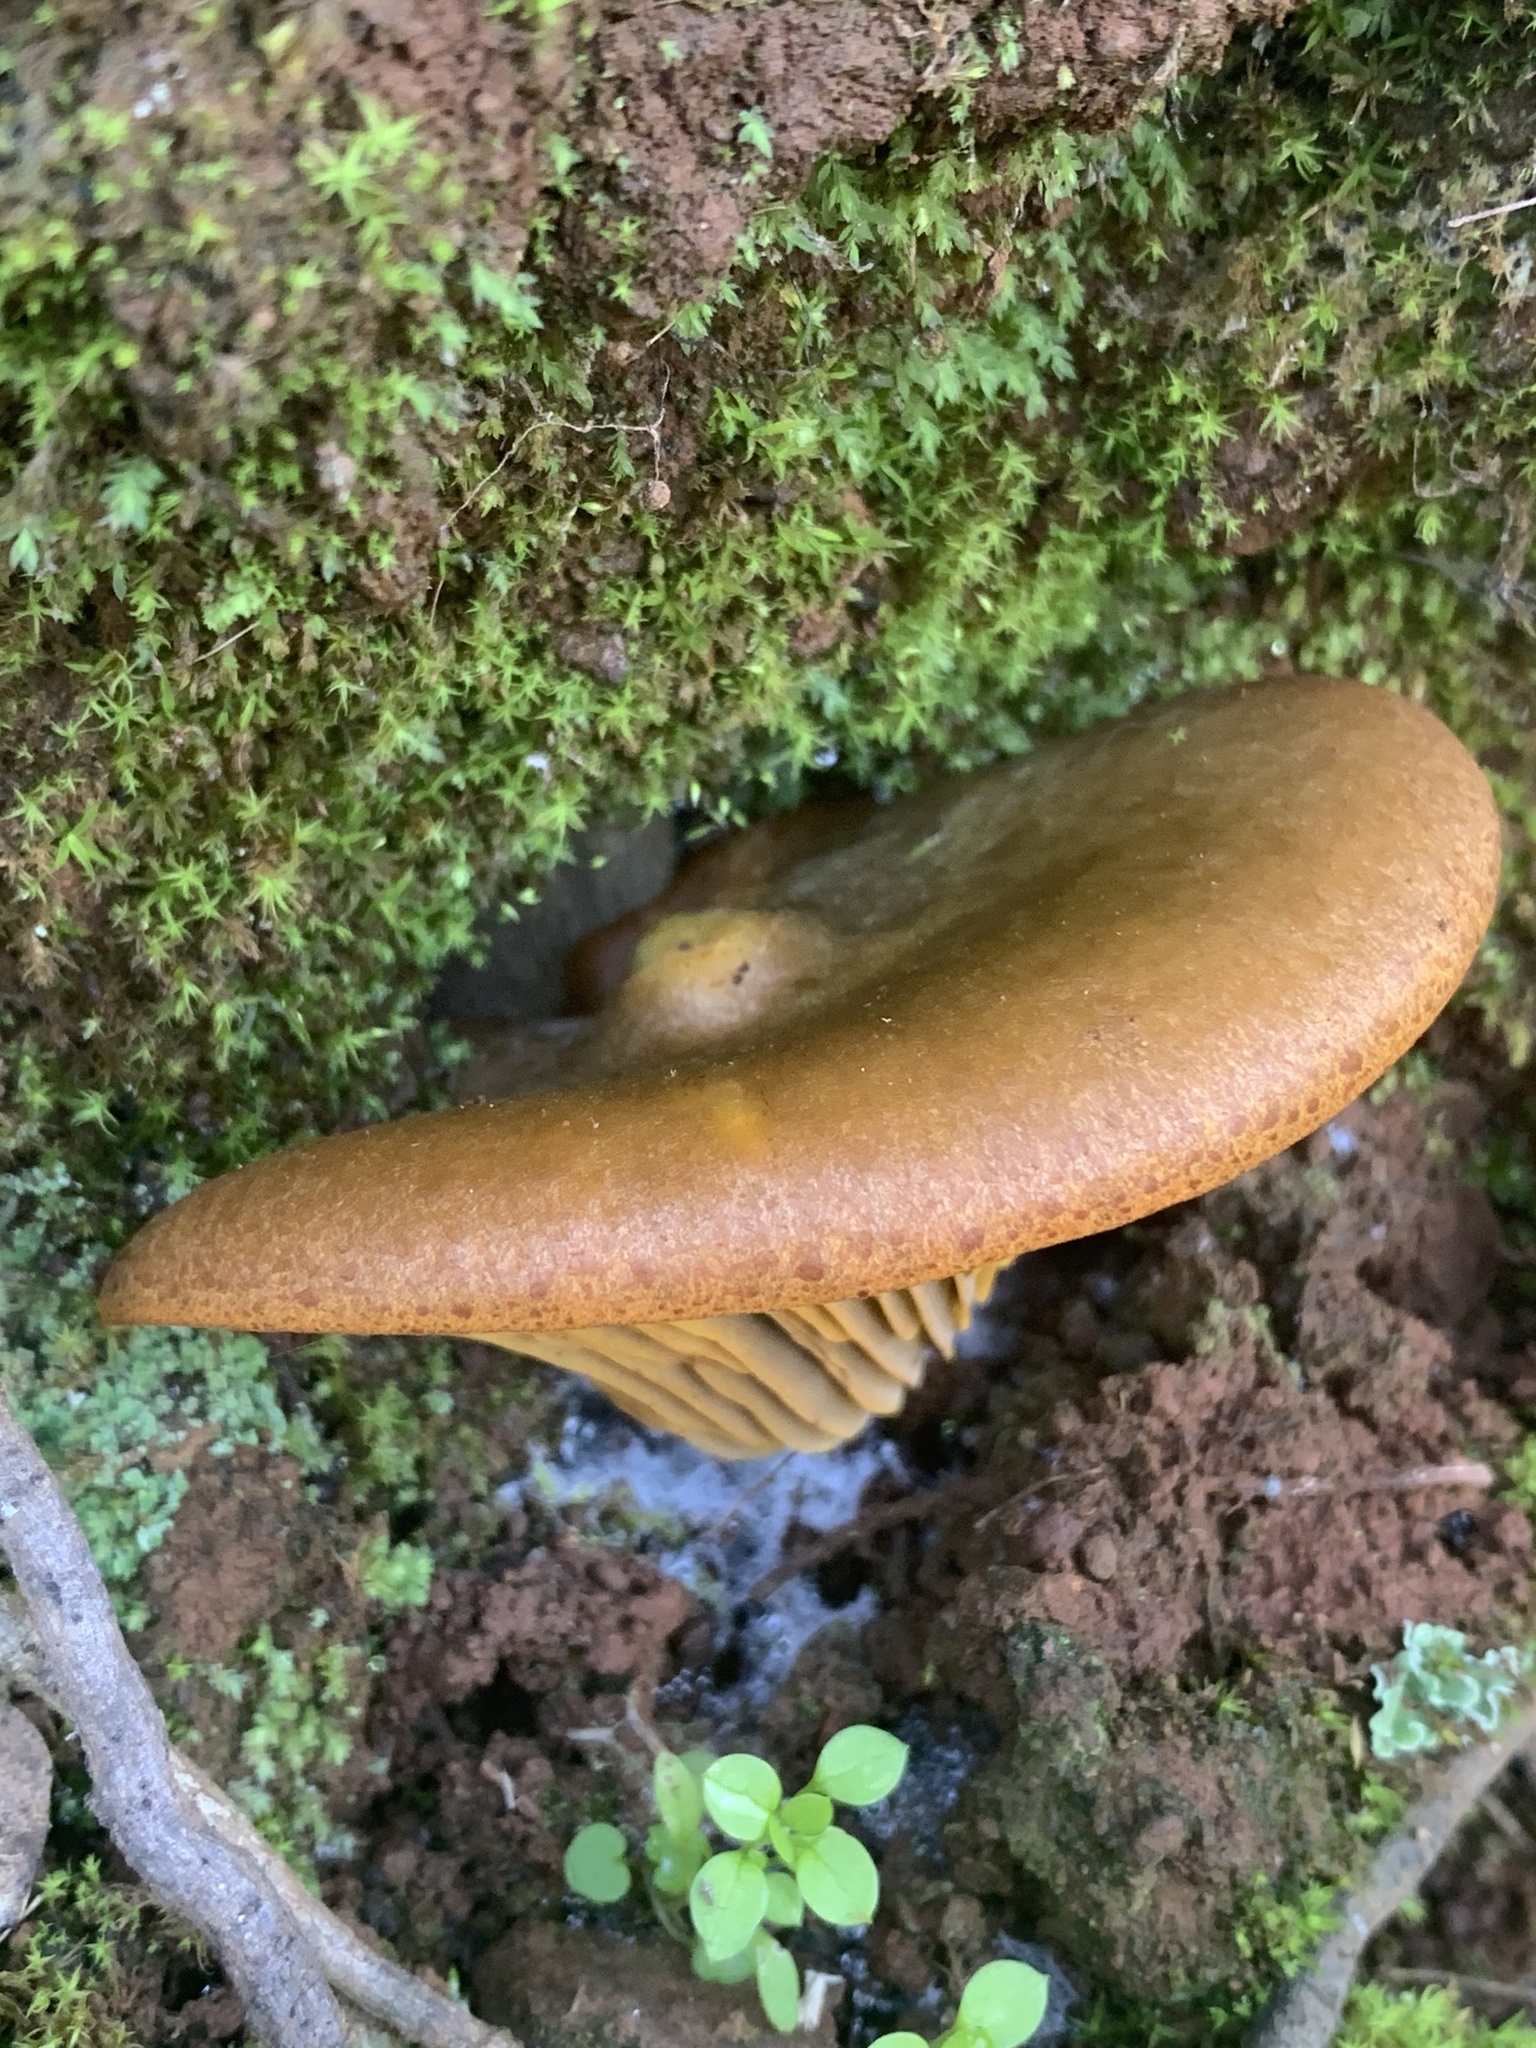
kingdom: Fungi
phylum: Basidiomycota
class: Agaricomycetes
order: Agaricales
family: Omphalotaceae
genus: Omphalotus
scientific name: Omphalotus olivascens
